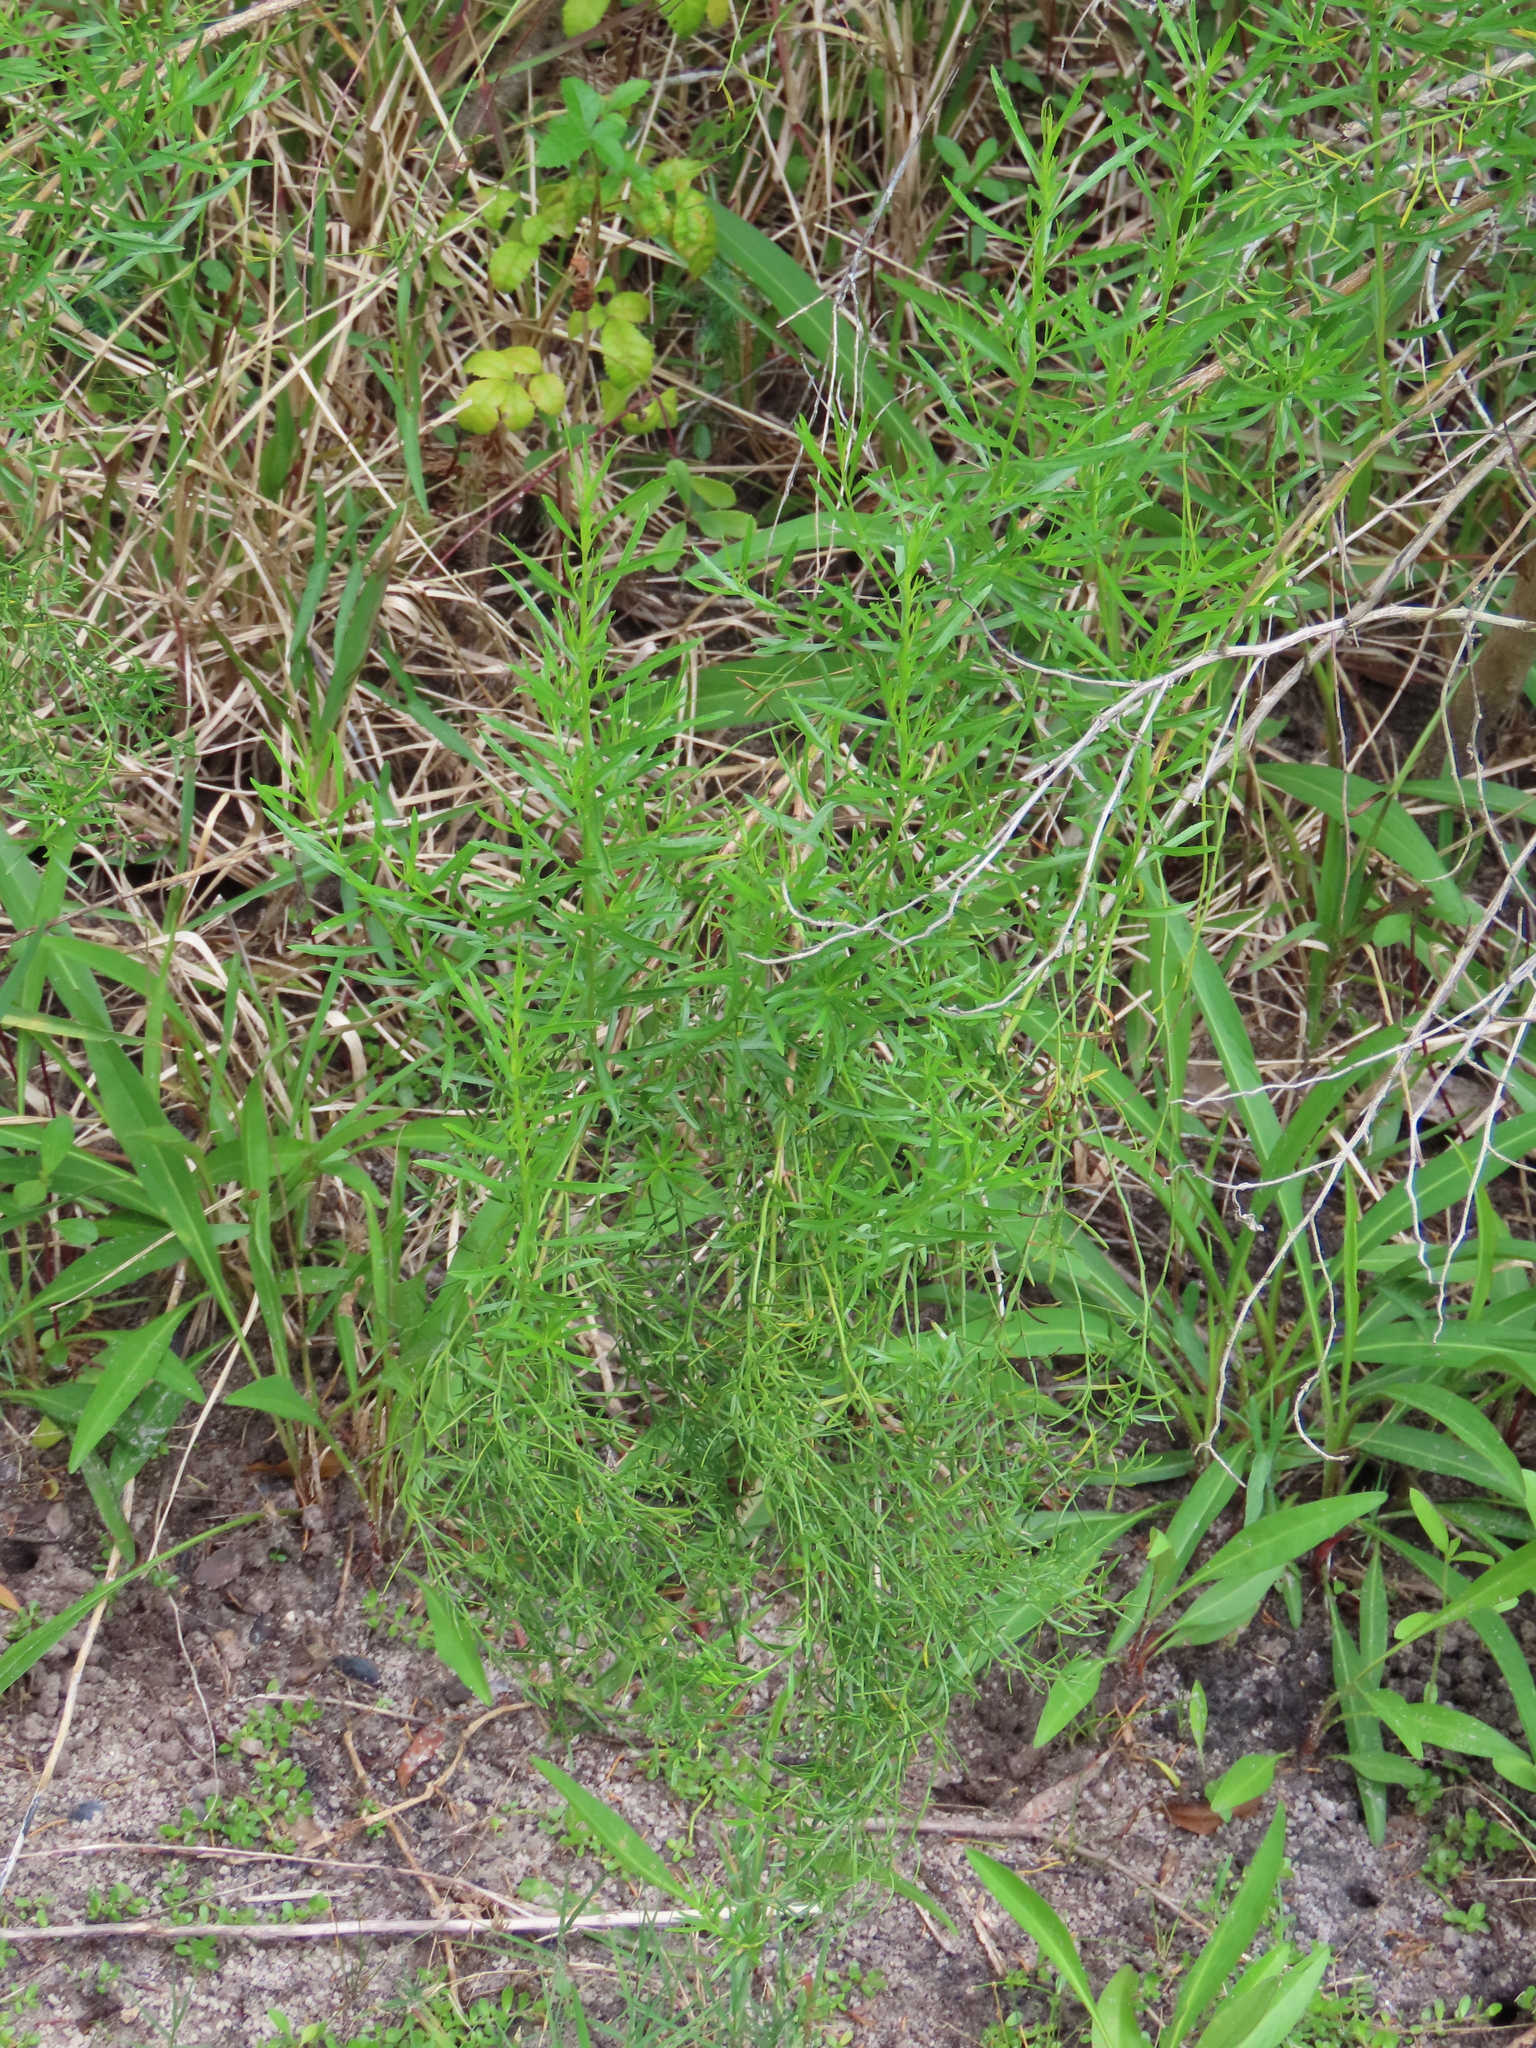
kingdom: Plantae
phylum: Tracheophyta
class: Magnoliopsida
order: Asterales
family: Asteraceae
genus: Baccharis
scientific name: Baccharis angustifolia
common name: Narrow-leaf baccharis
